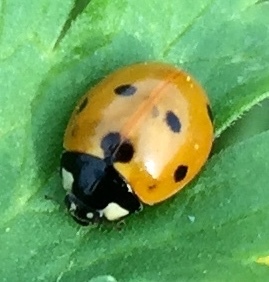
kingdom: Animalia
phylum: Arthropoda
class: Insecta
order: Coleoptera
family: Coccinellidae
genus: Coccinella
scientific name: Coccinella septempunctata
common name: Sevenspotted lady beetle
